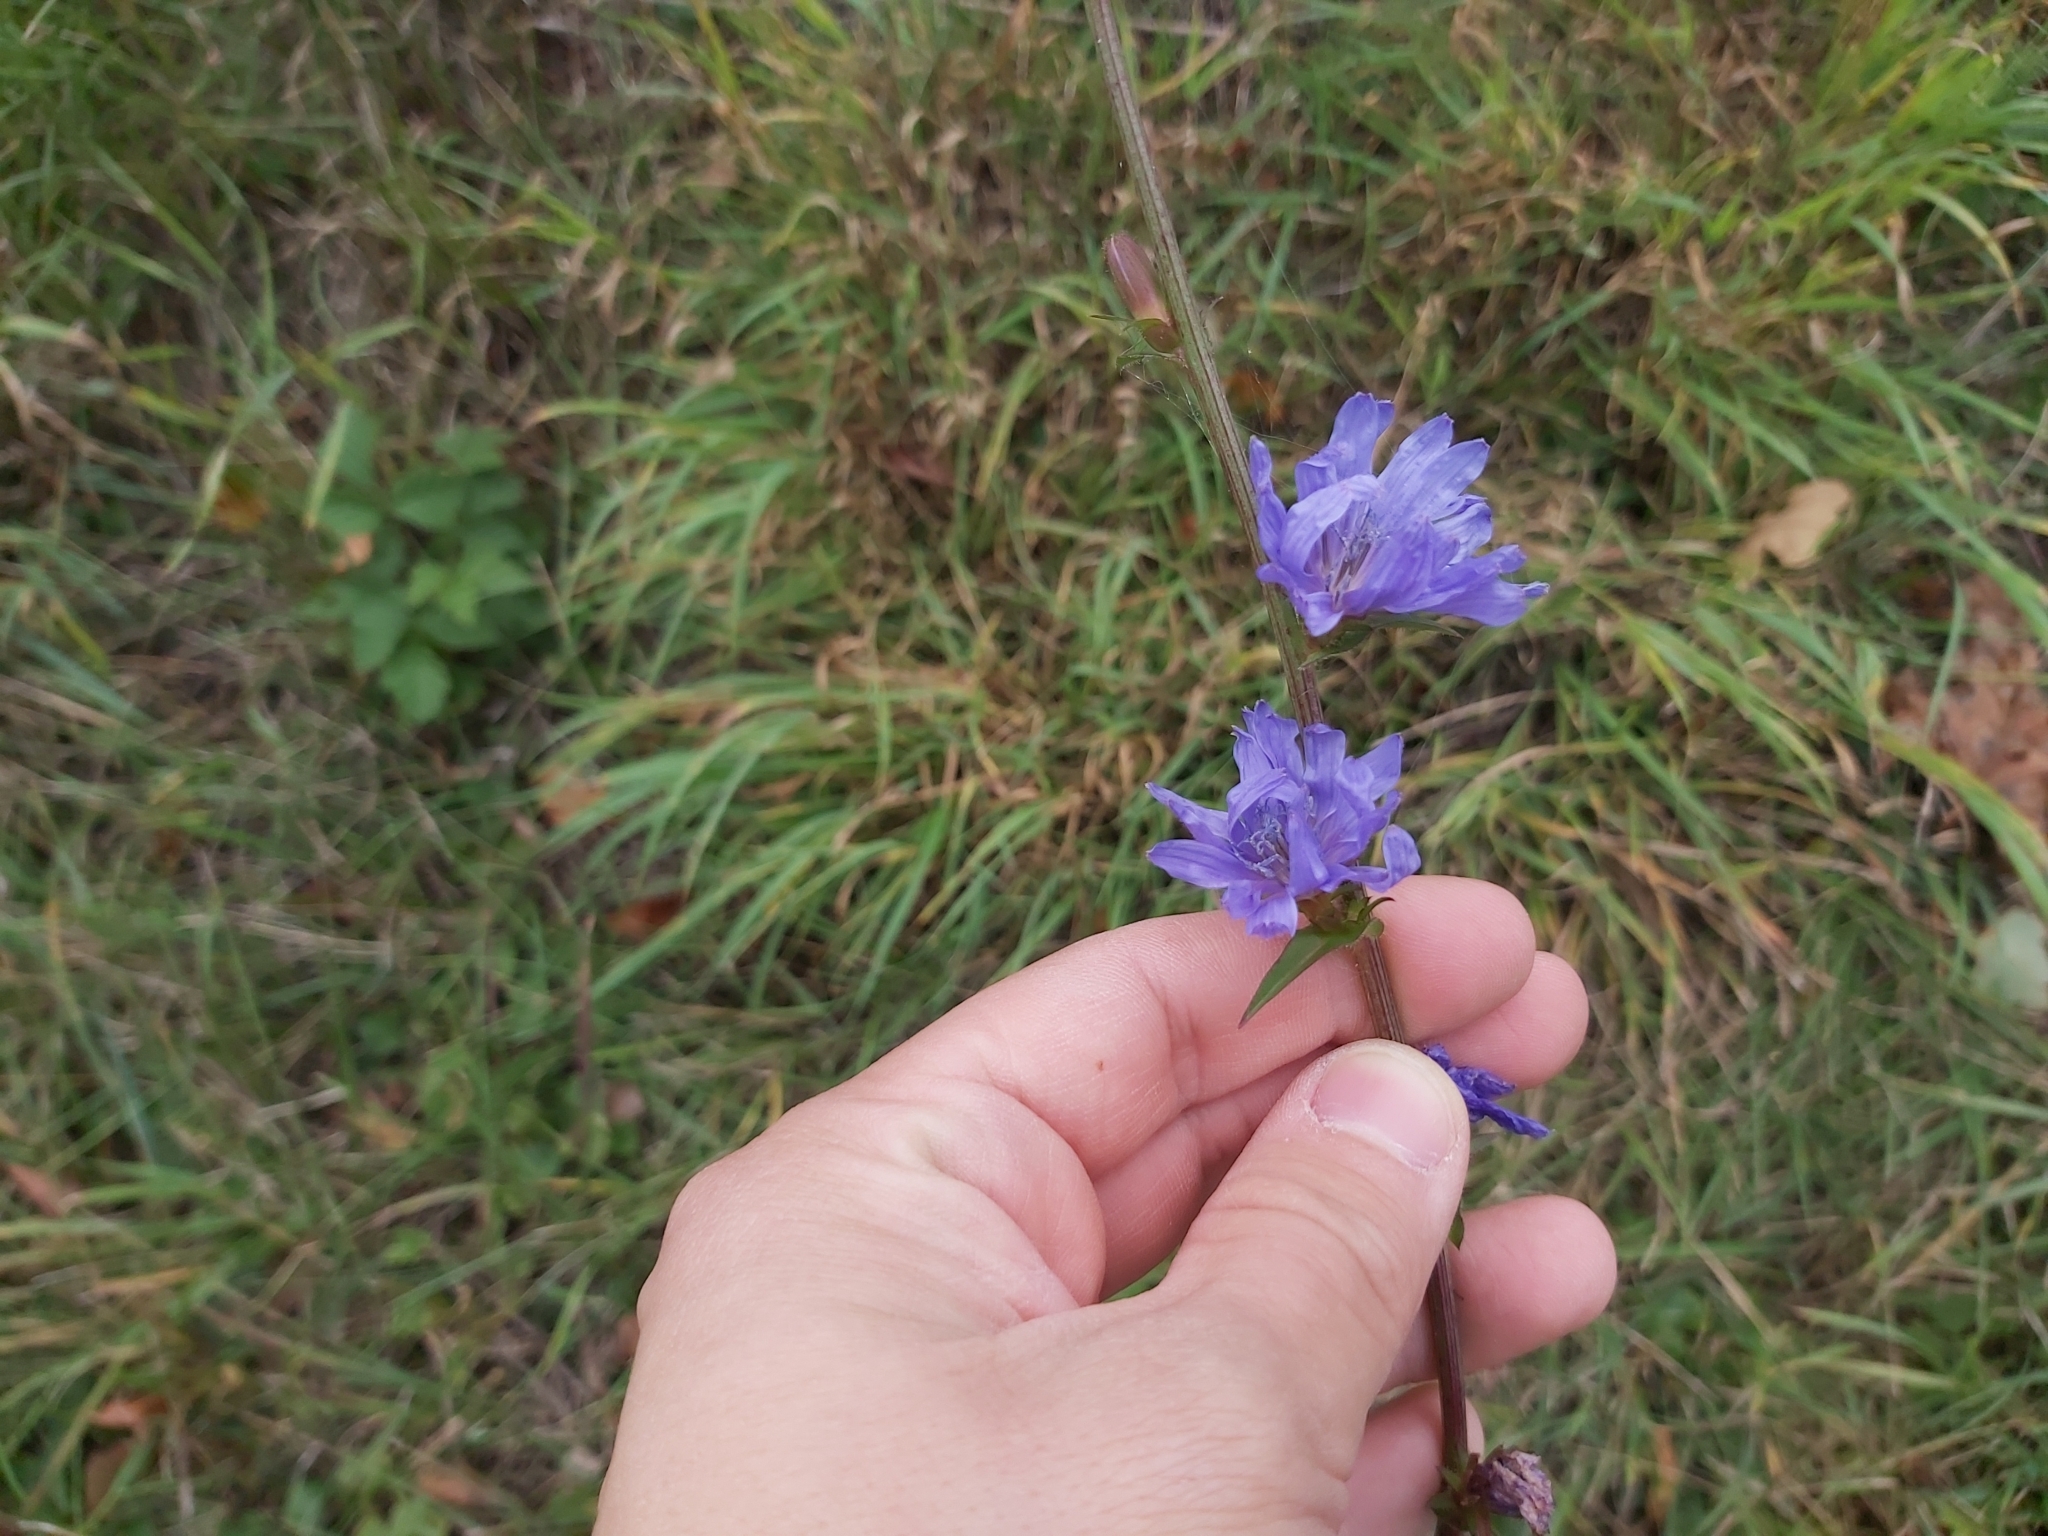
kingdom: Plantae
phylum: Tracheophyta
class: Magnoliopsida
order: Asterales
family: Asteraceae
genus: Cichorium
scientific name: Cichorium intybus
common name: Chicory
